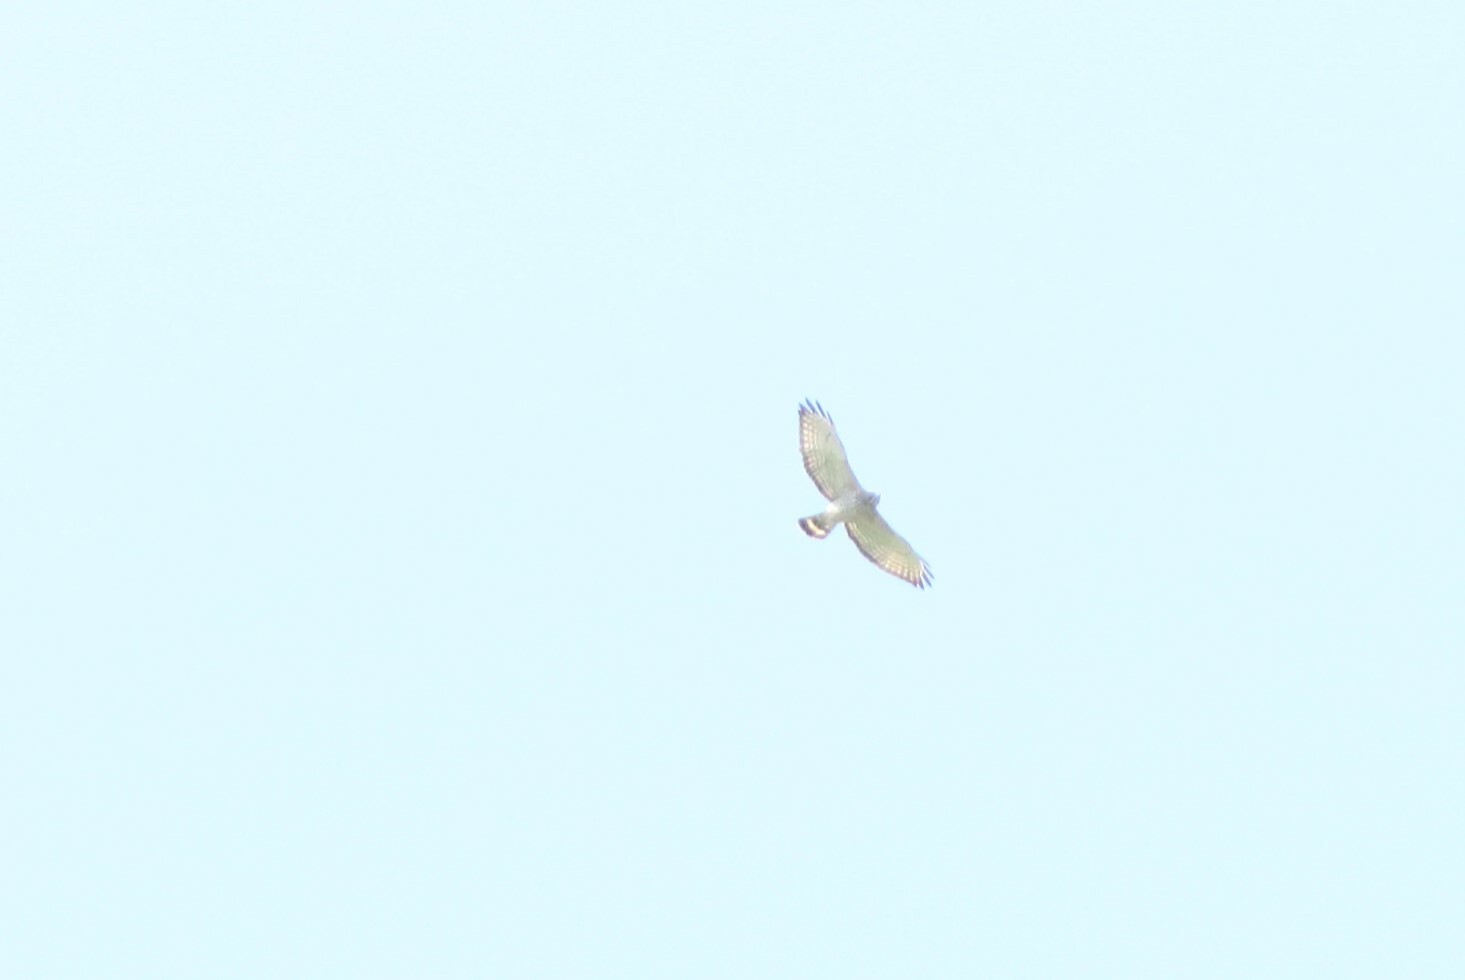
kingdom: Animalia
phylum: Chordata
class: Aves
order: Accipitriformes
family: Accipitridae
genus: Buteo
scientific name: Buteo platypterus
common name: Broad-winged hawk
